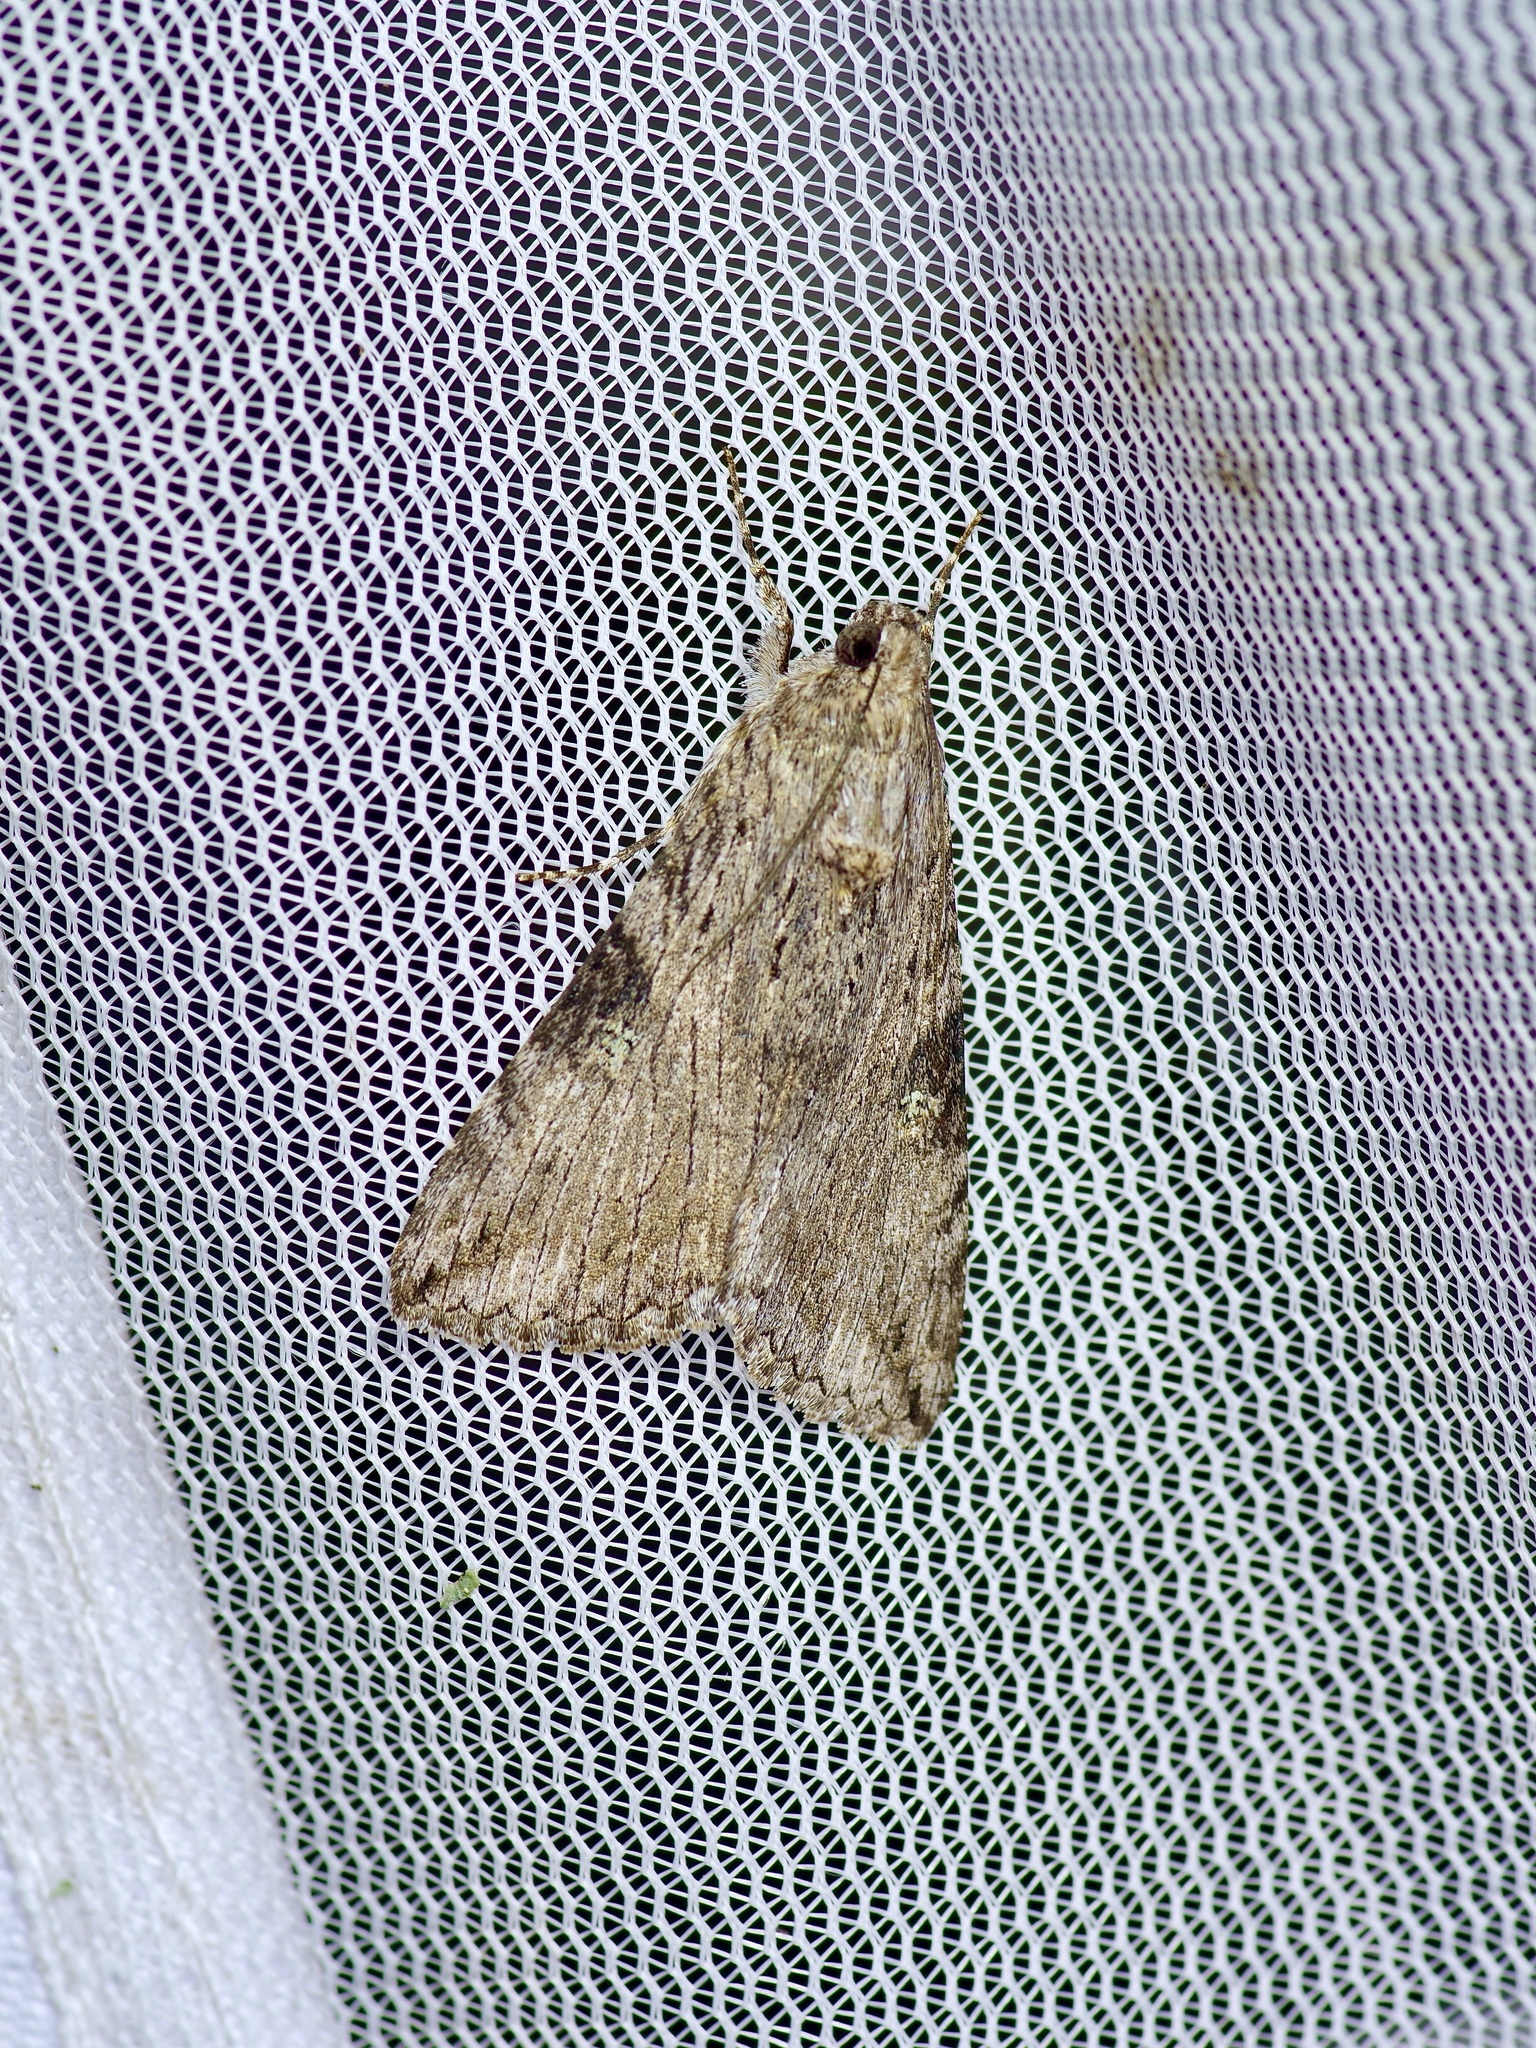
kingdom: Animalia
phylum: Arthropoda
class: Insecta
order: Lepidoptera
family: Erebidae
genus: Melipotis
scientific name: Melipotis jucunda
